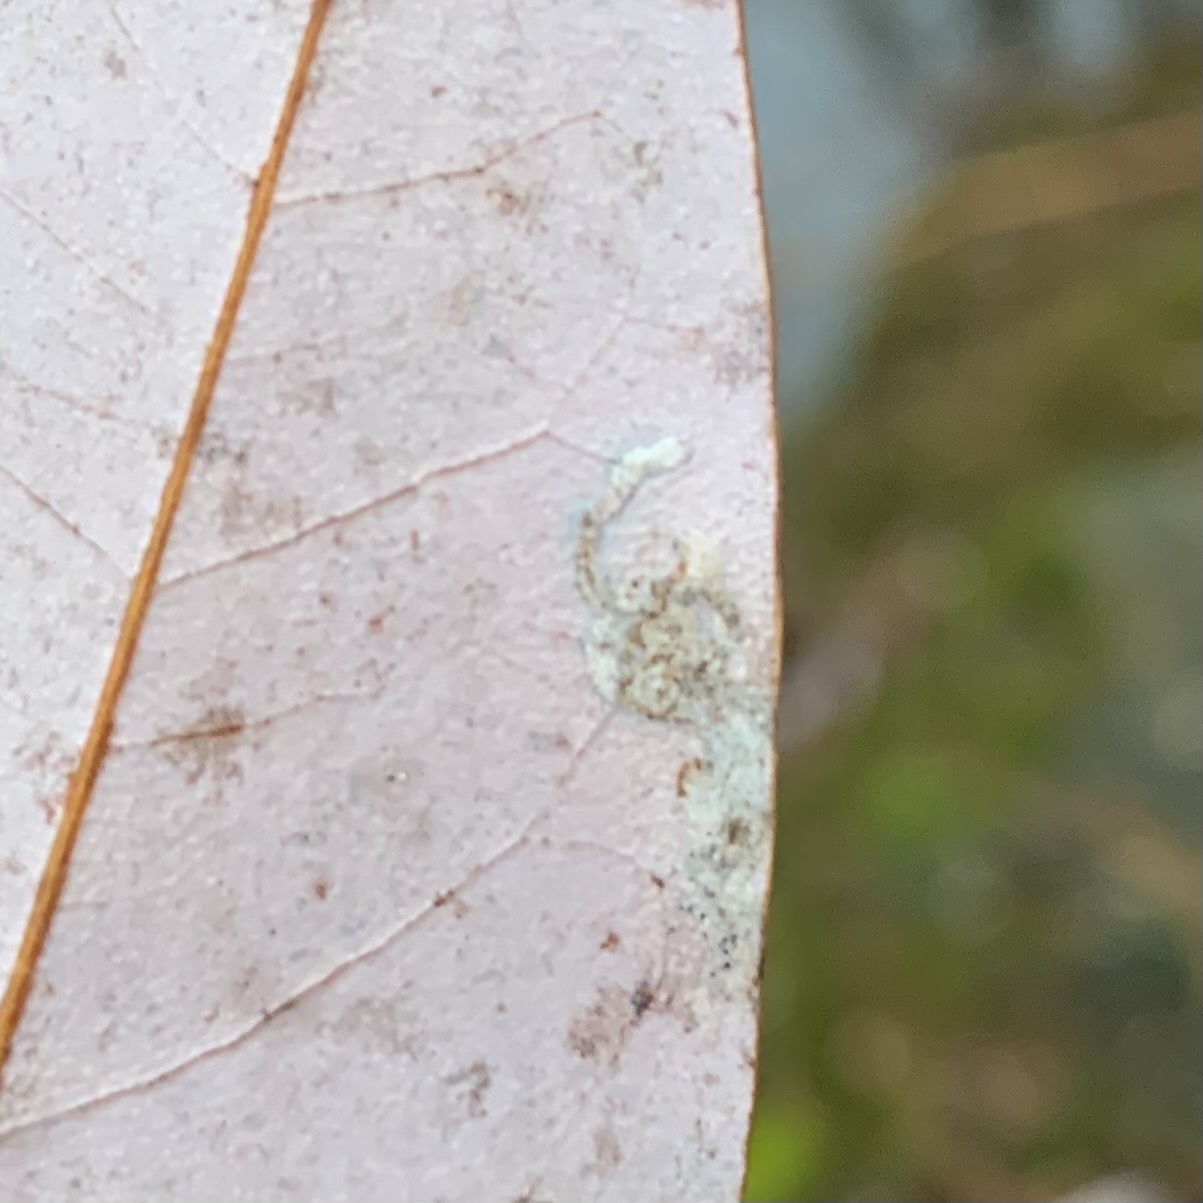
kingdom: Animalia
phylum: Arthropoda
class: Insecta
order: Lepidoptera
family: Gracillariidae
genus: Phyllocnistis
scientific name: Phyllocnistis liriodendronella
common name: Tulip tree leaf miner
